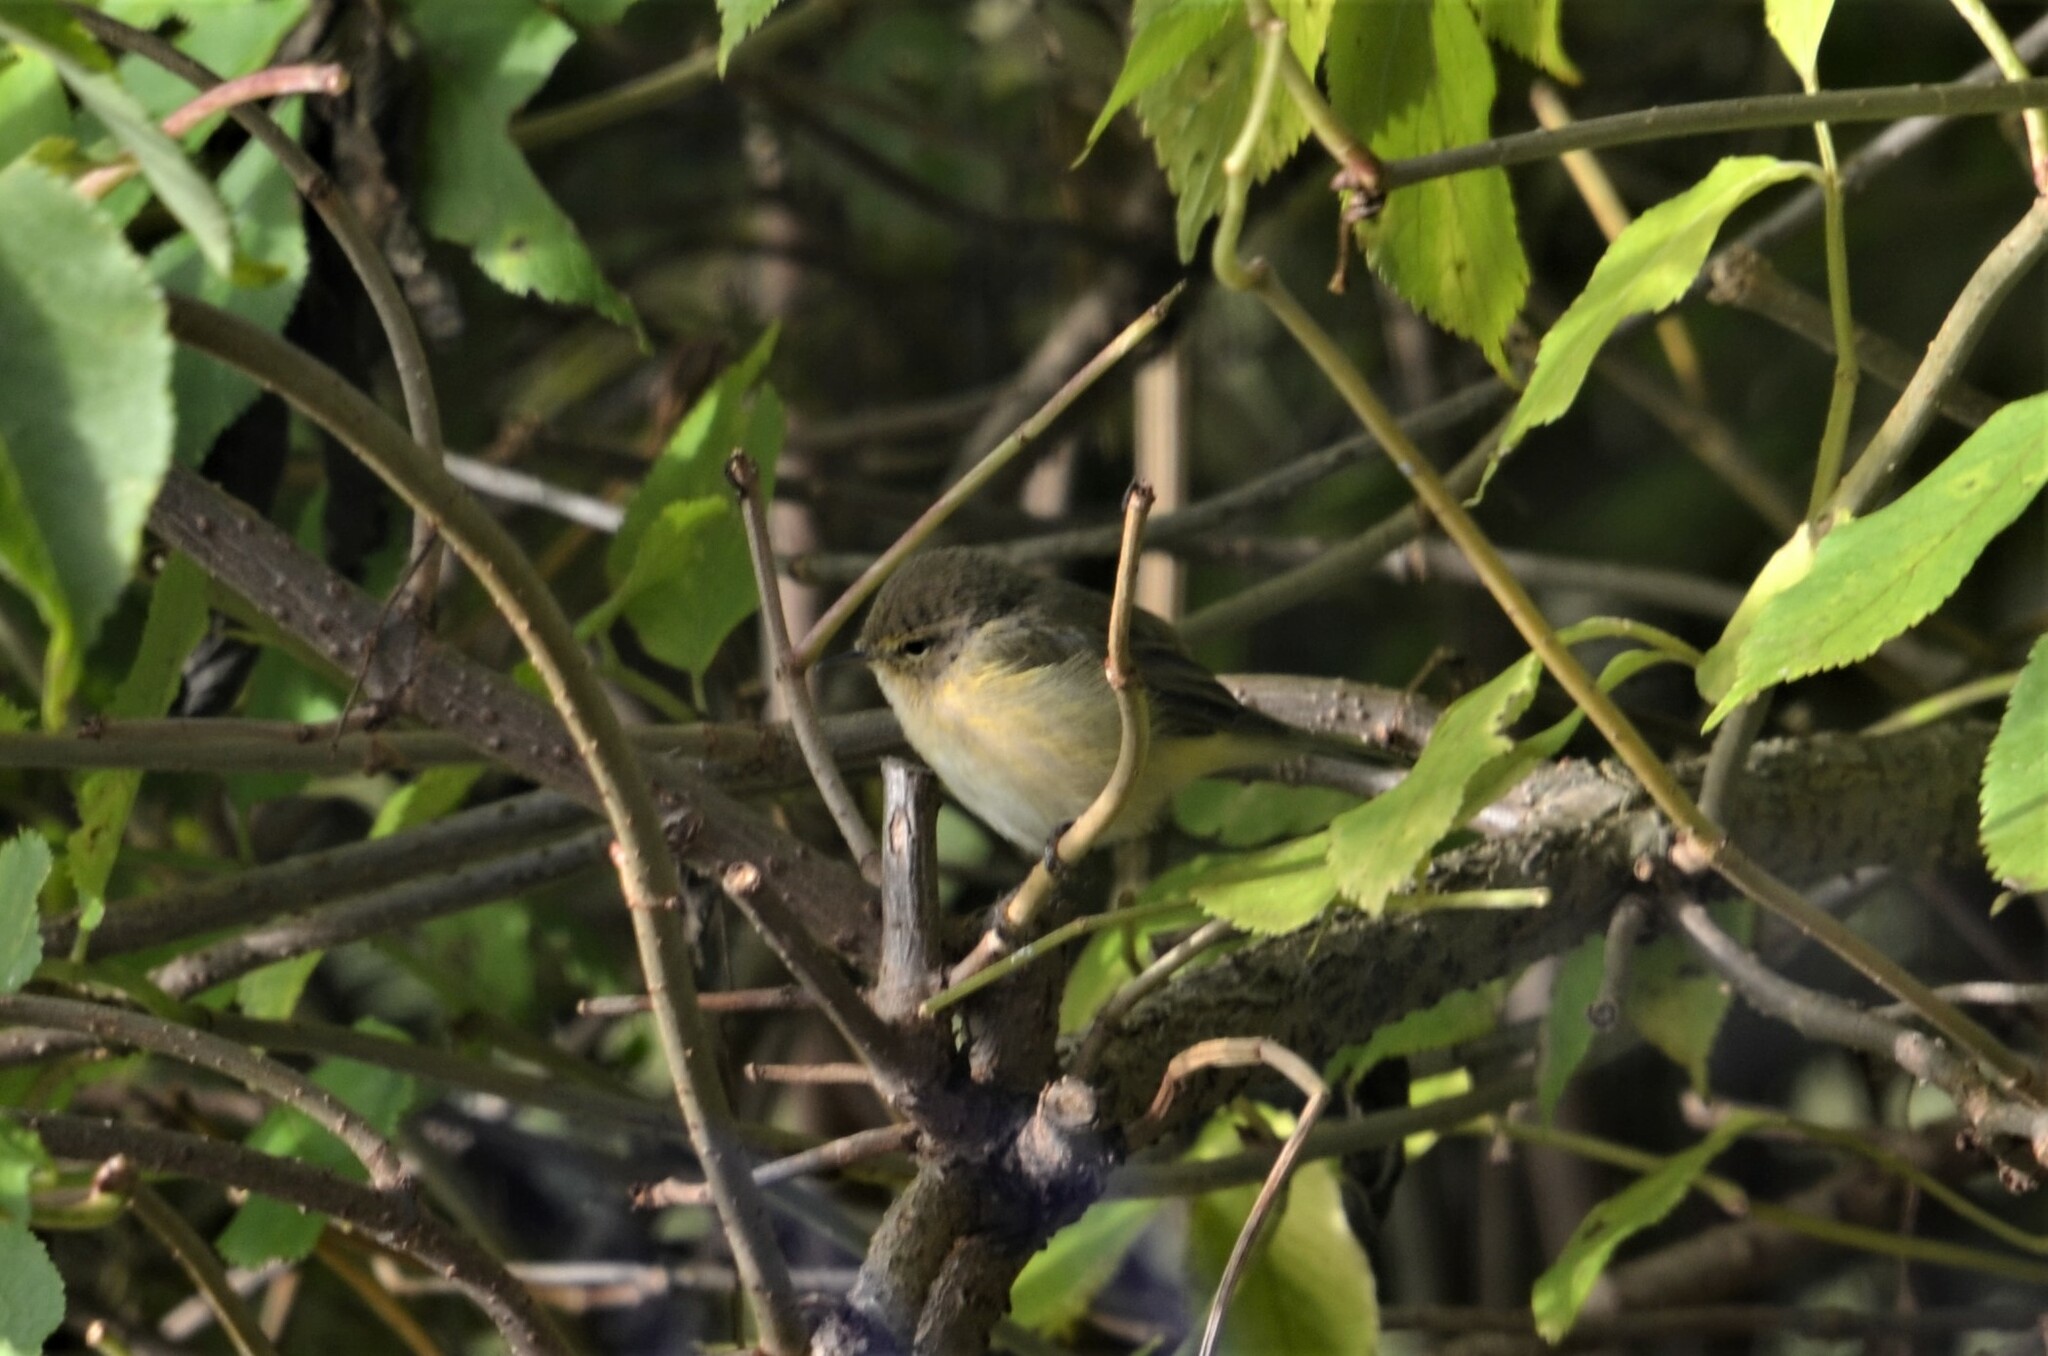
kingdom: Animalia
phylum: Chordata
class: Aves
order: Passeriformes
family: Phylloscopidae
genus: Phylloscopus
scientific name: Phylloscopus collybita
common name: Common chiffchaff
